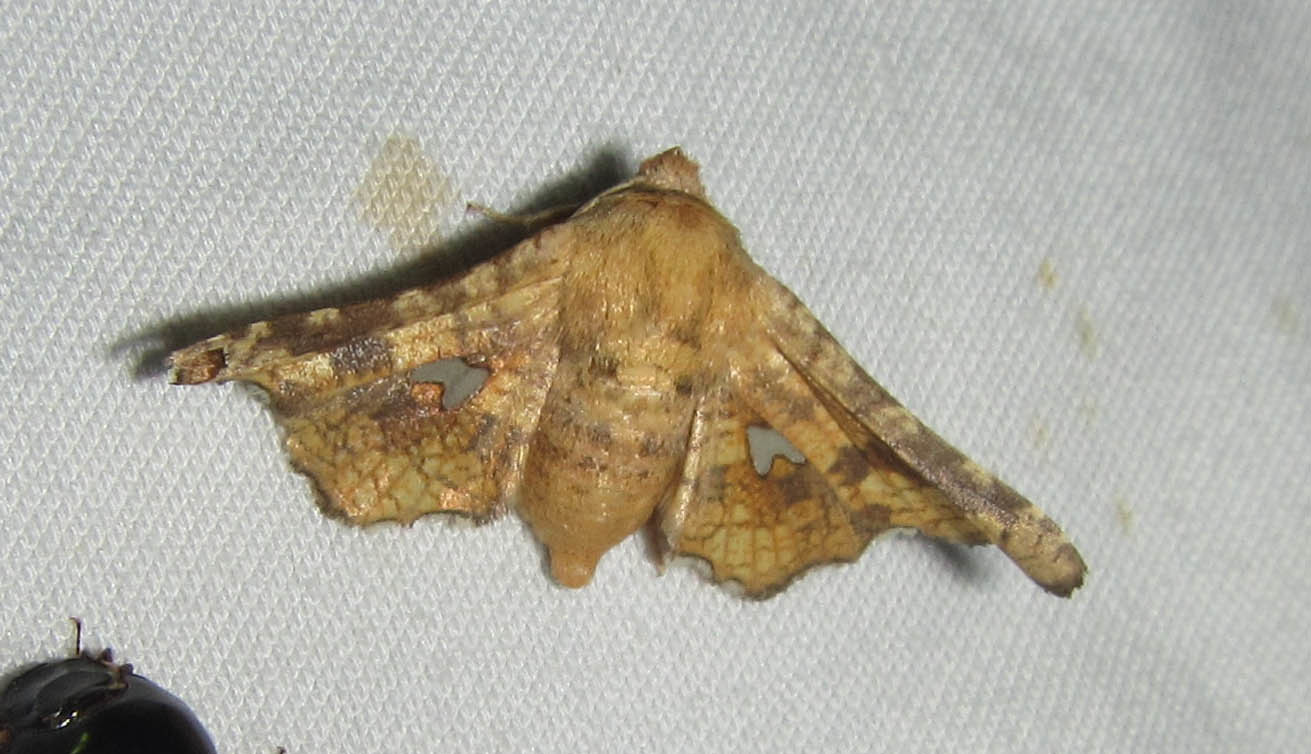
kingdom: Animalia
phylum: Arthropoda
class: Insecta
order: Lepidoptera
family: Thyrididae
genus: Dysodia
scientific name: Dysodia constellata
